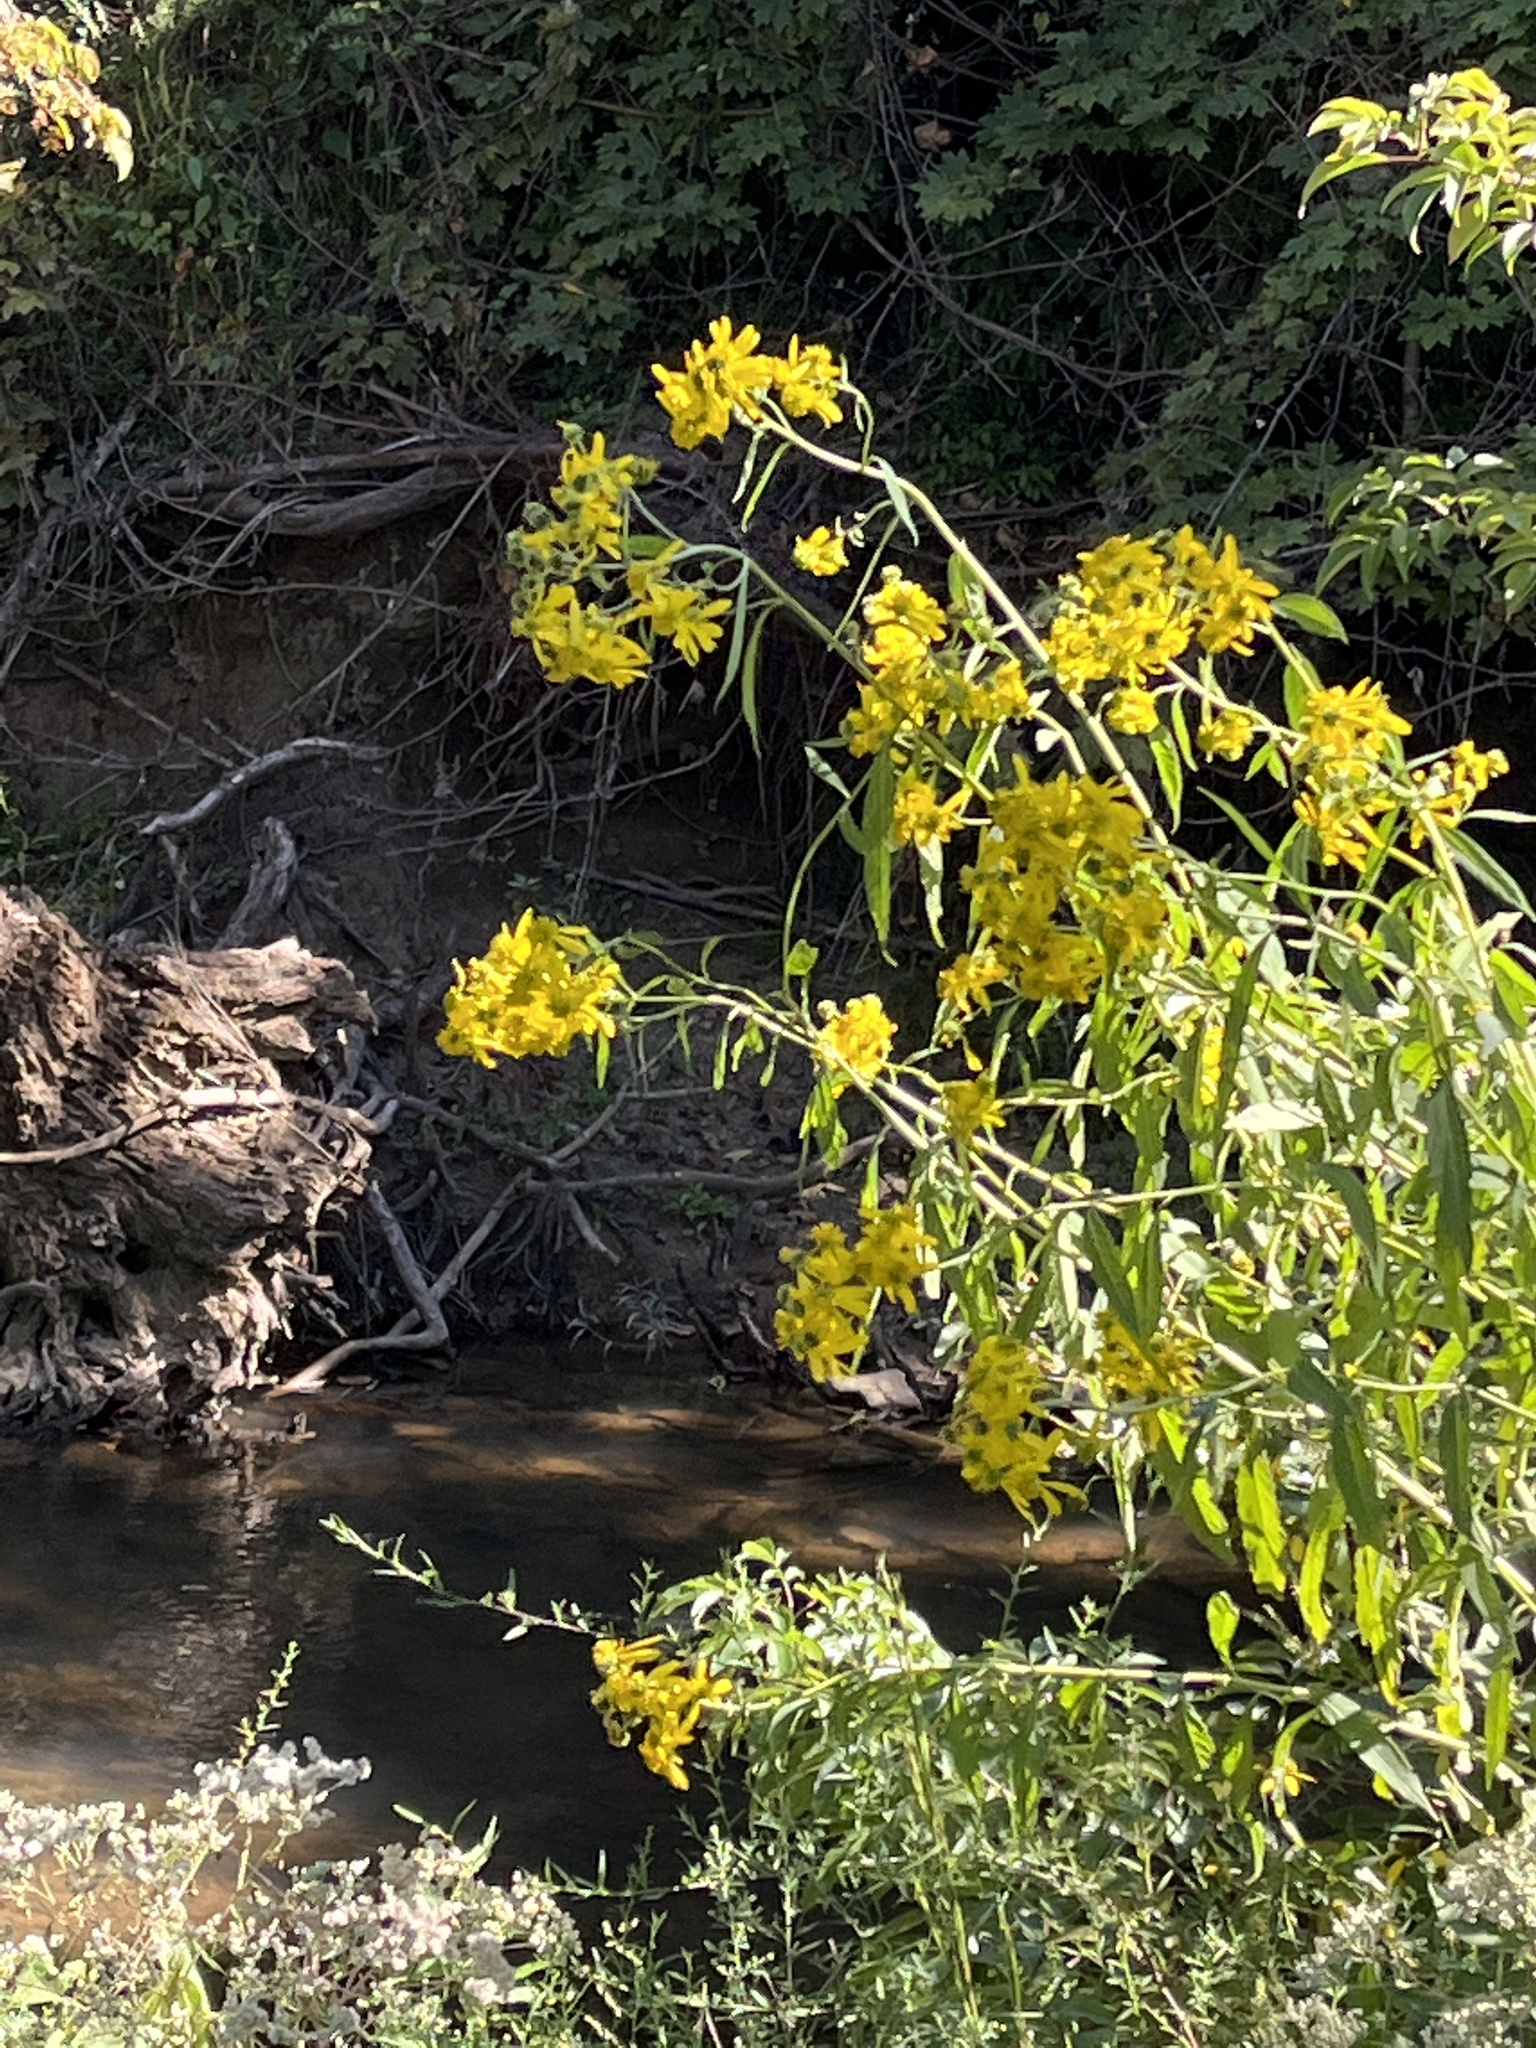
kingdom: Plantae
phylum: Tracheophyta
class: Magnoliopsida
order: Asterales
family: Asteraceae
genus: Verbesina
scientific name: Verbesina alternifolia
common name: Wingstem
